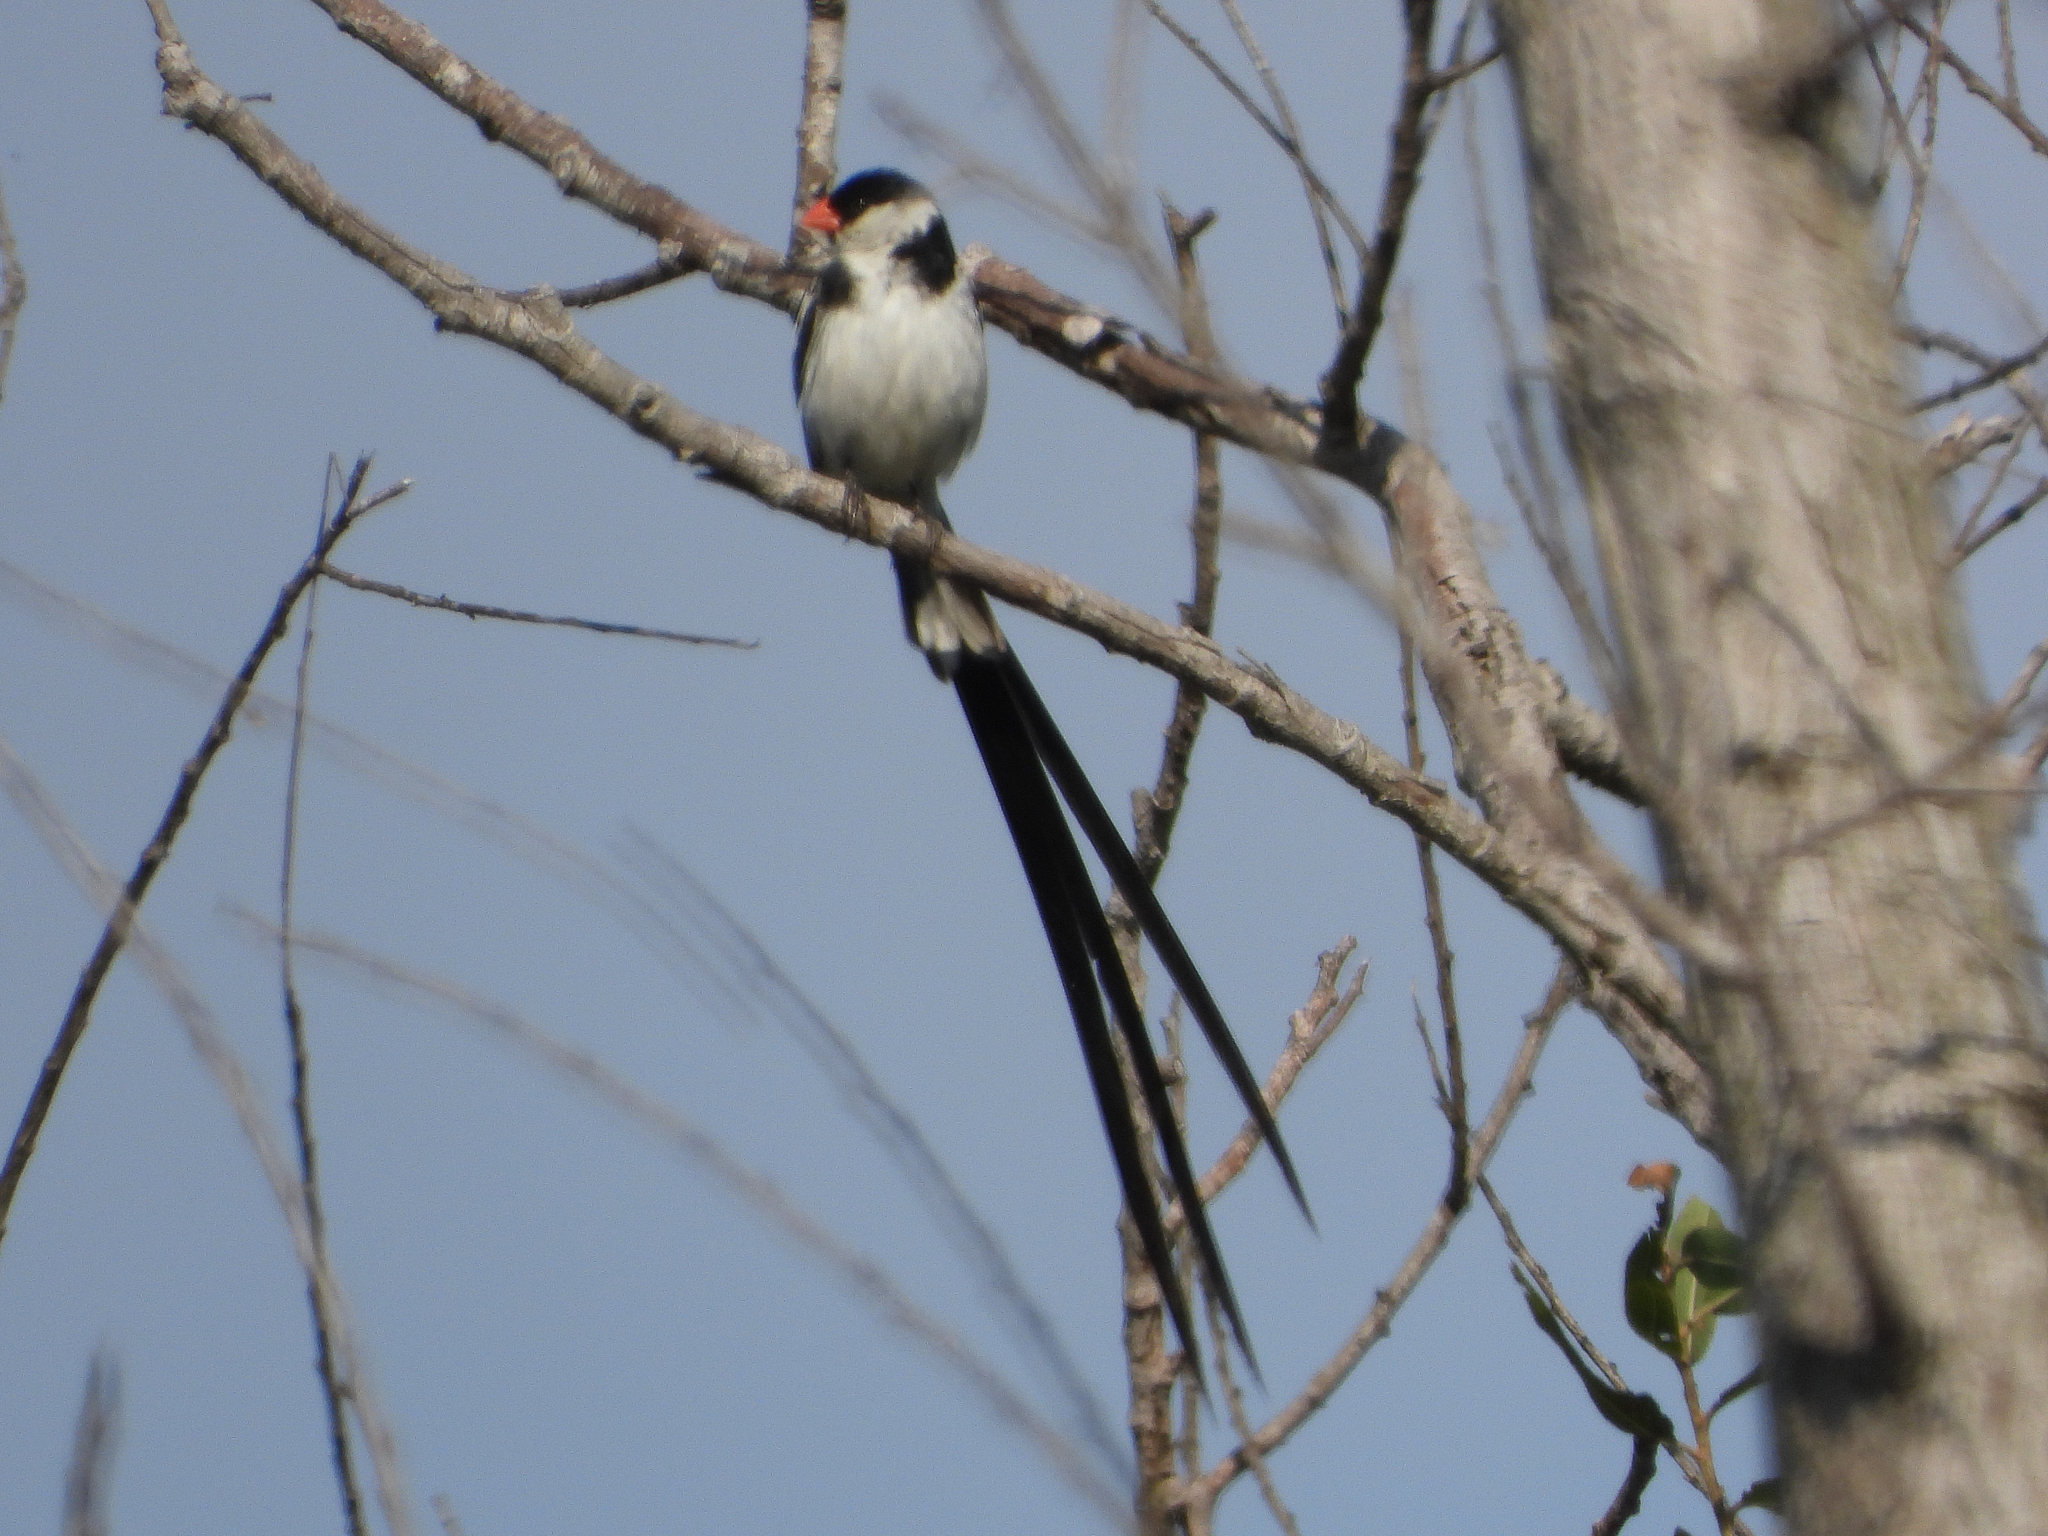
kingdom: Animalia
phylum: Chordata
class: Aves
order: Passeriformes
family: Viduidae
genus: Vidua
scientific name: Vidua macroura
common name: Pin-tailed whydah
